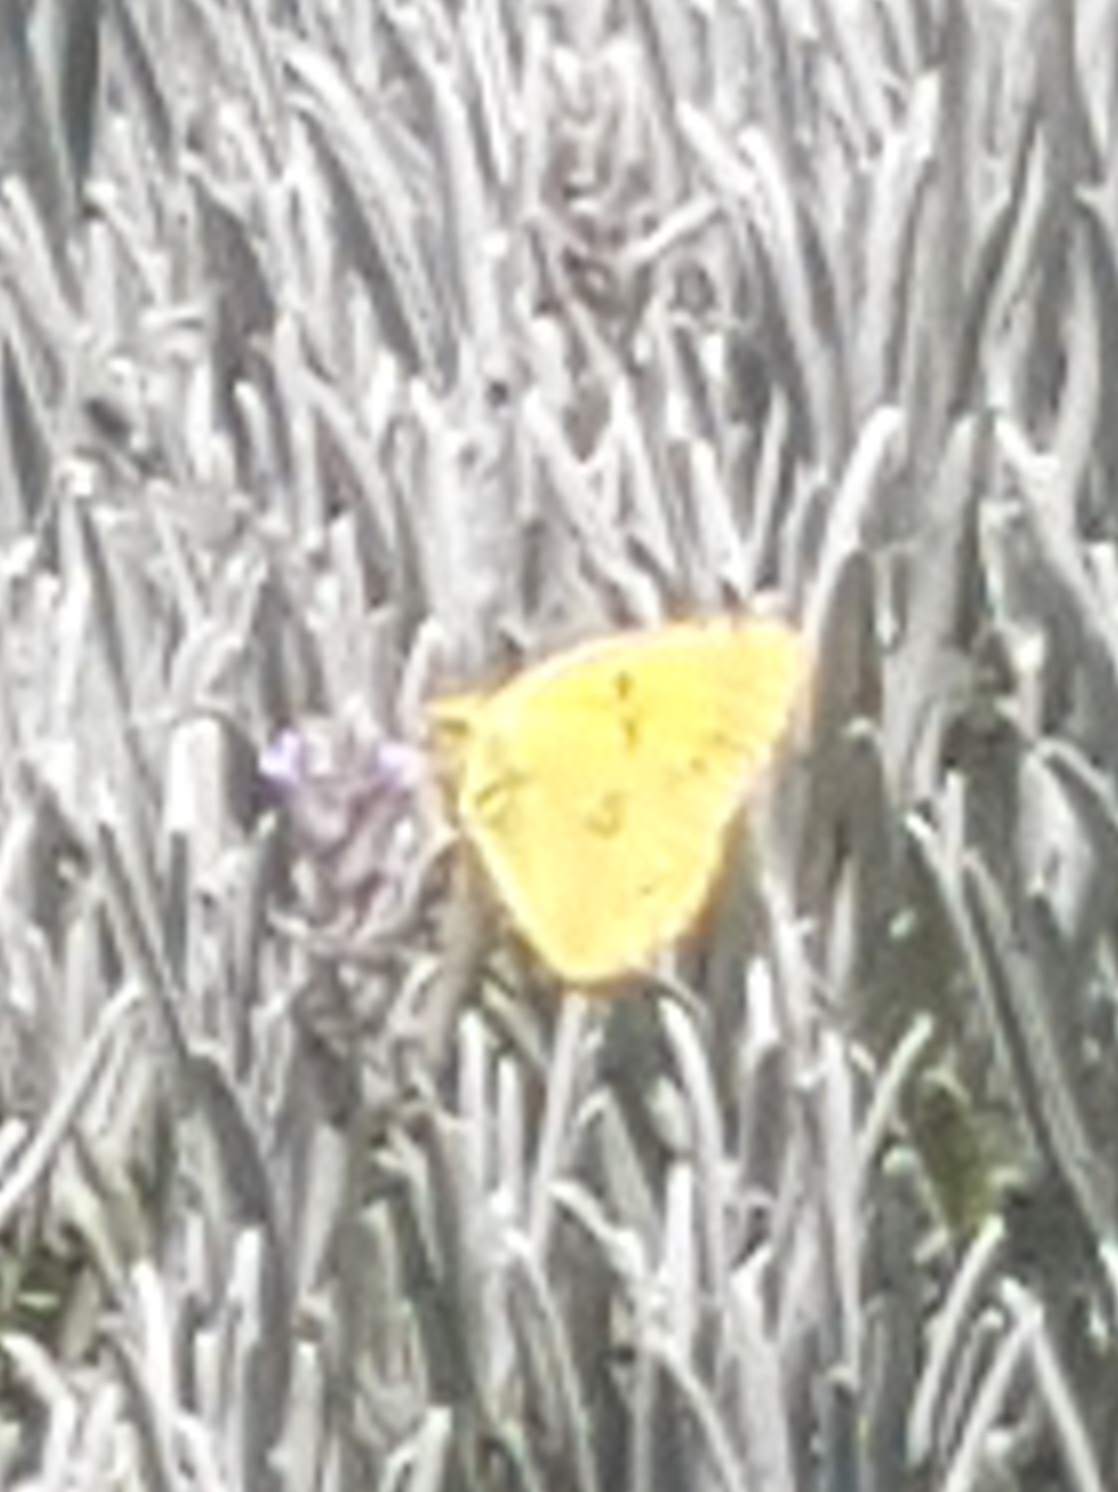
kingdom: Animalia
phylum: Arthropoda
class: Insecta
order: Lepidoptera
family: Pieridae
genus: Colias
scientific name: Colias croceus
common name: Clouded yellow
